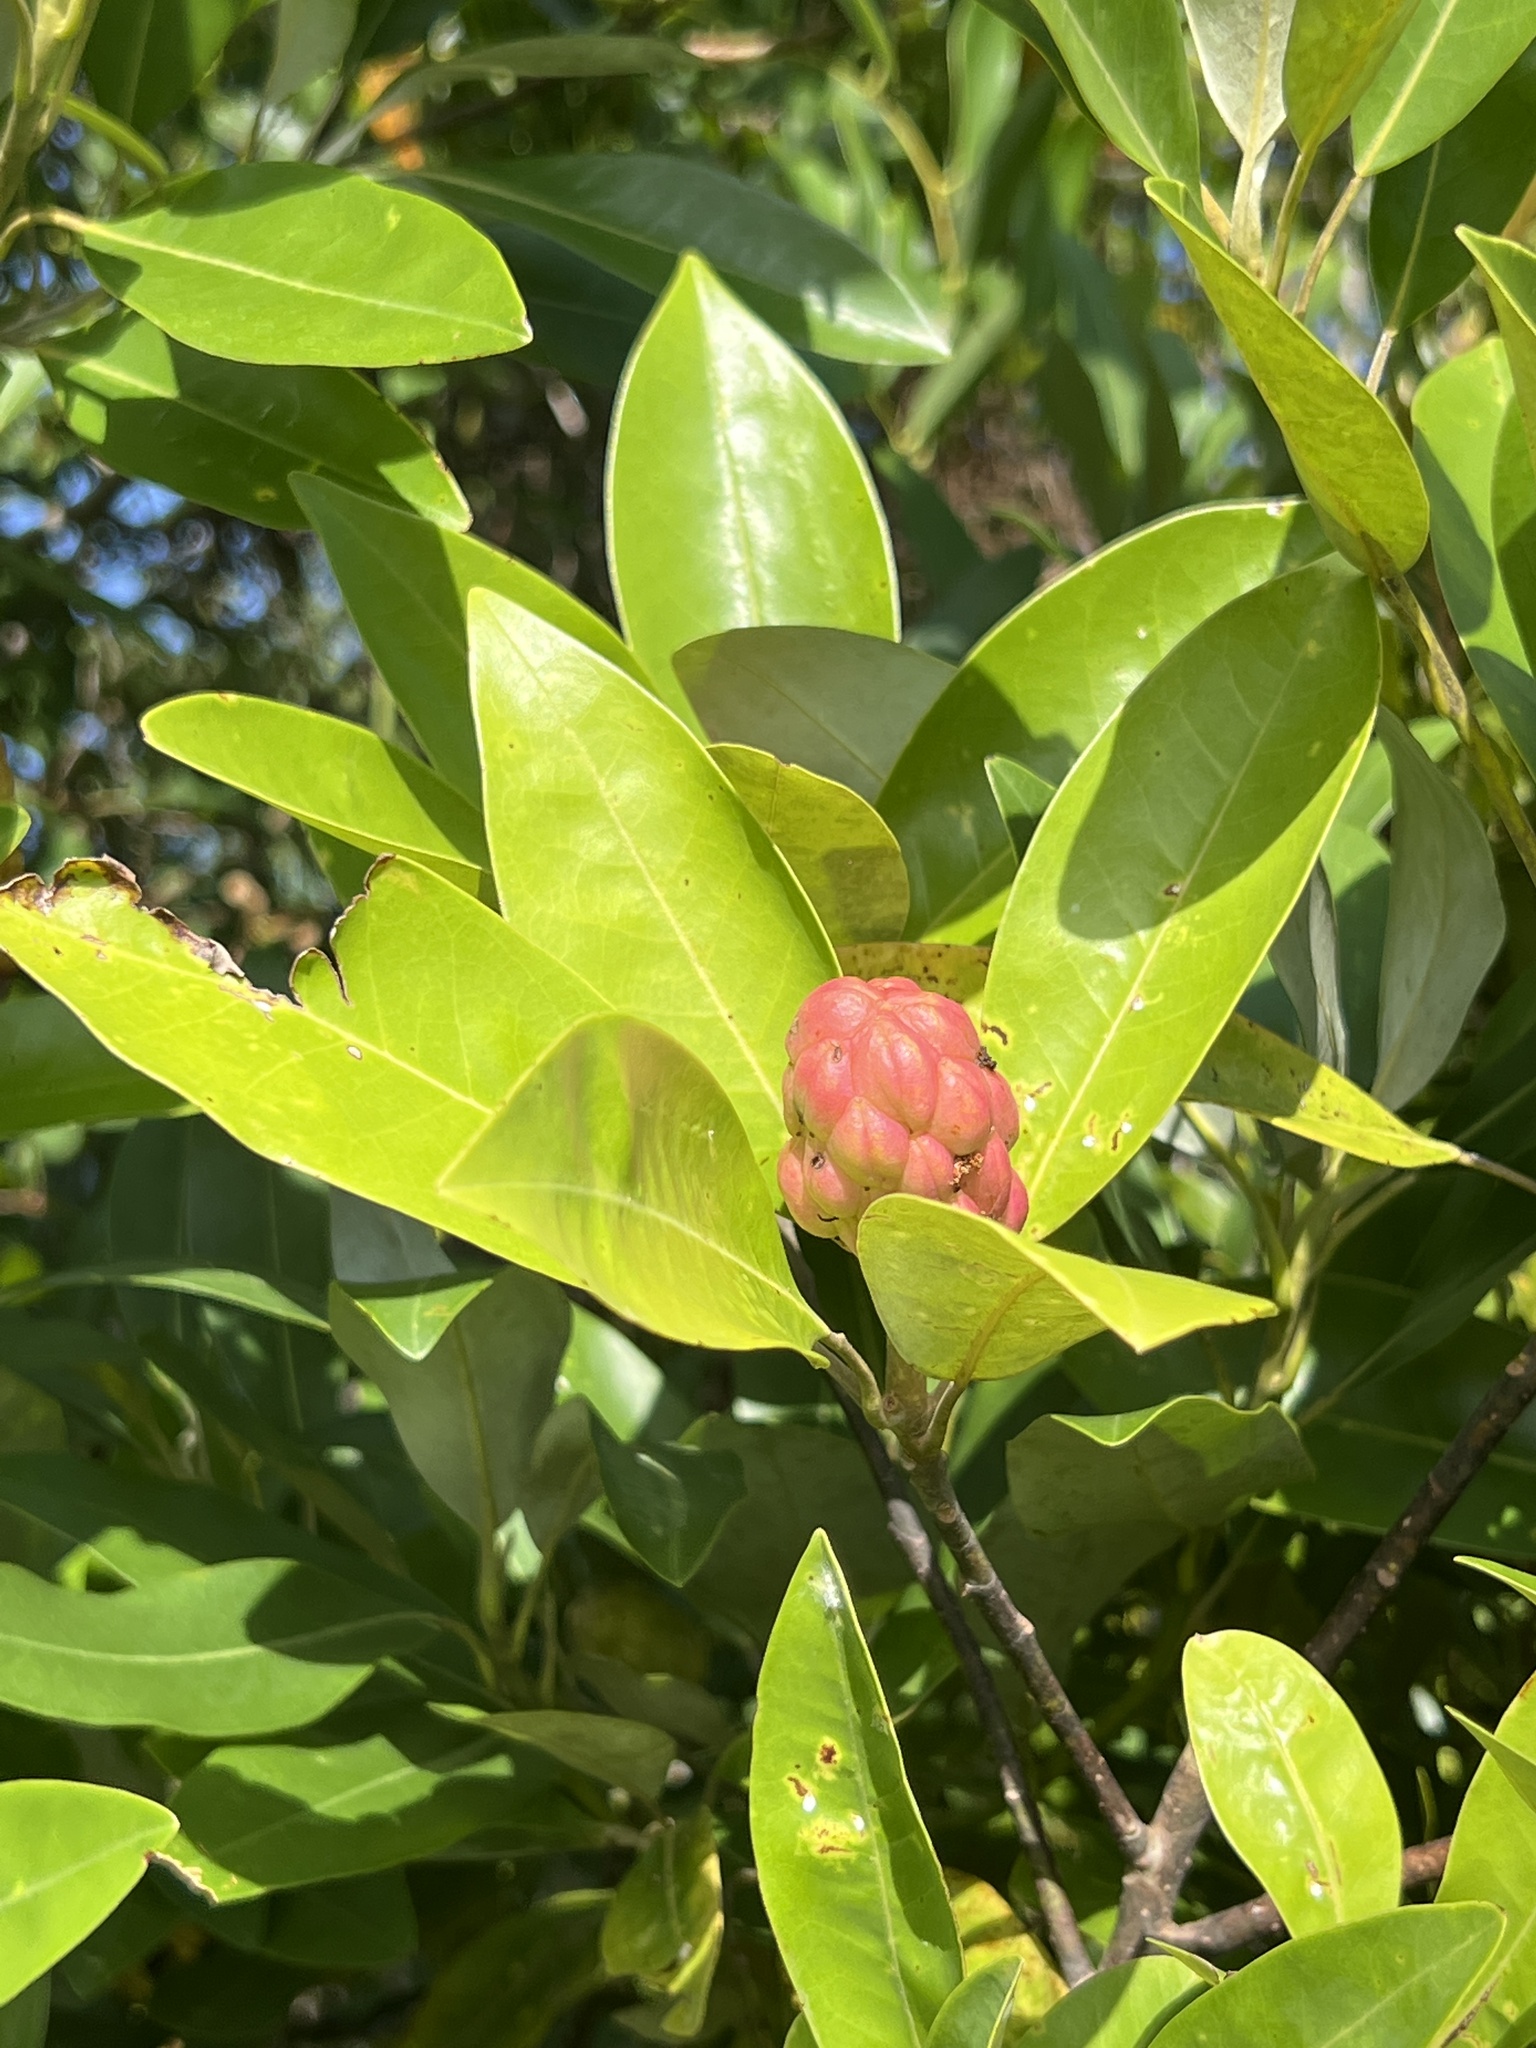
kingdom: Plantae
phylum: Tracheophyta
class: Magnoliopsida
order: Magnoliales
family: Magnoliaceae
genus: Magnolia
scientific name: Magnolia virginiana
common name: Swamp bay
